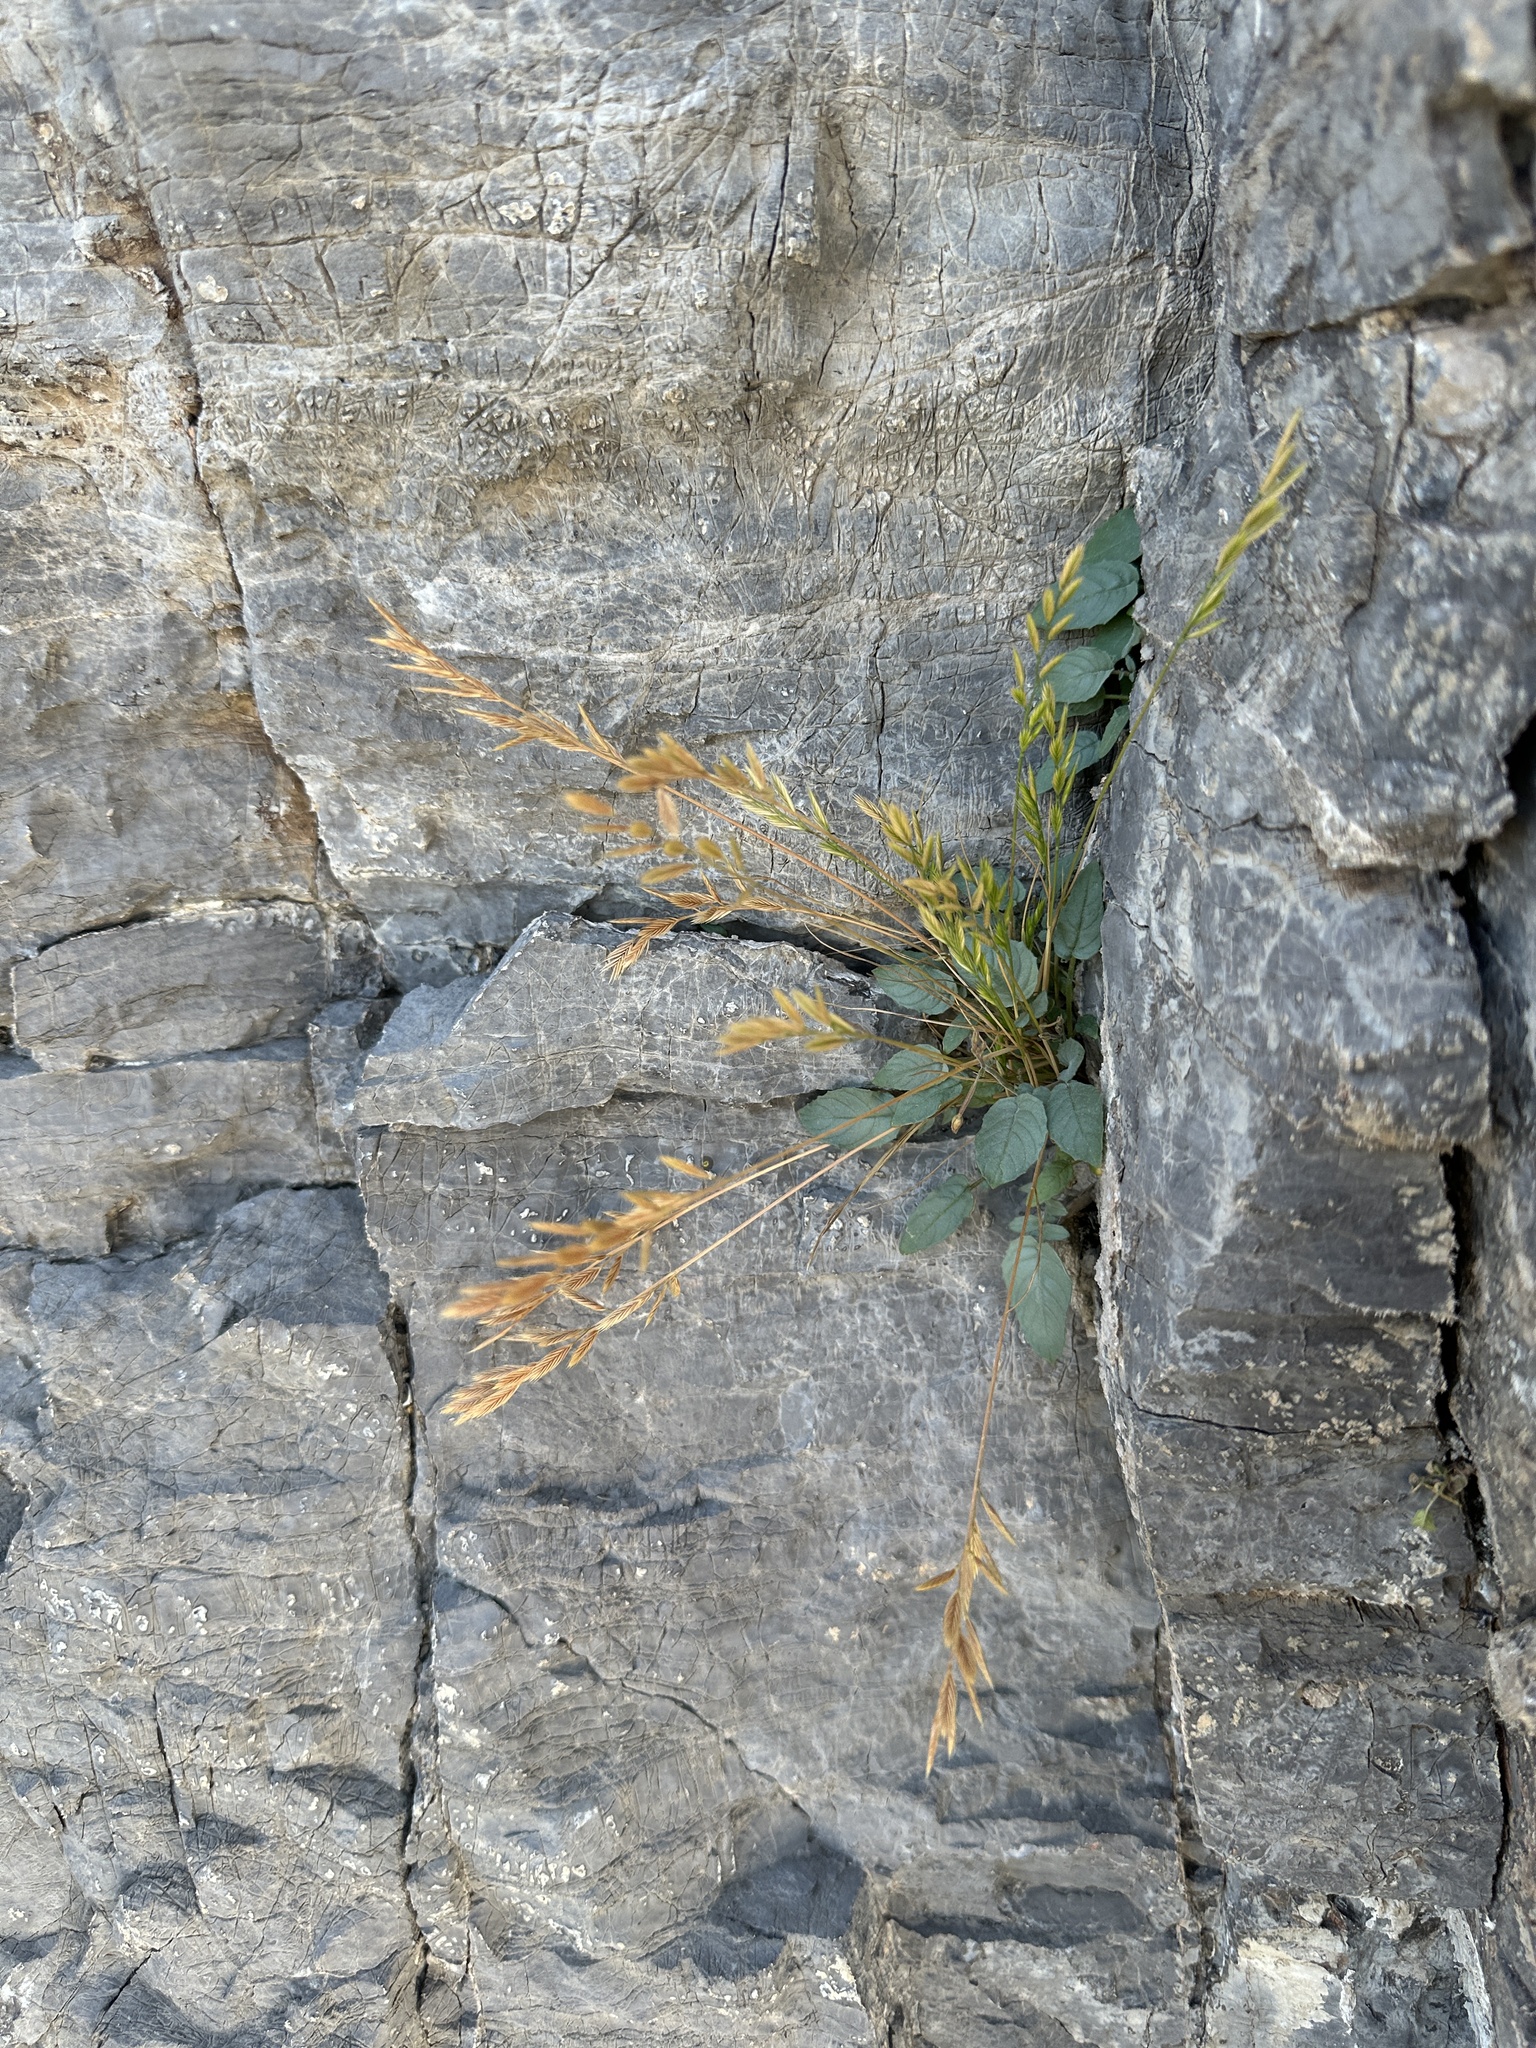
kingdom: Plantae
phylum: Tracheophyta
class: Liliopsida
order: Poales
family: Poaceae
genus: Festuca
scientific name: Festuca octoflora
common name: Sixweeks grass
